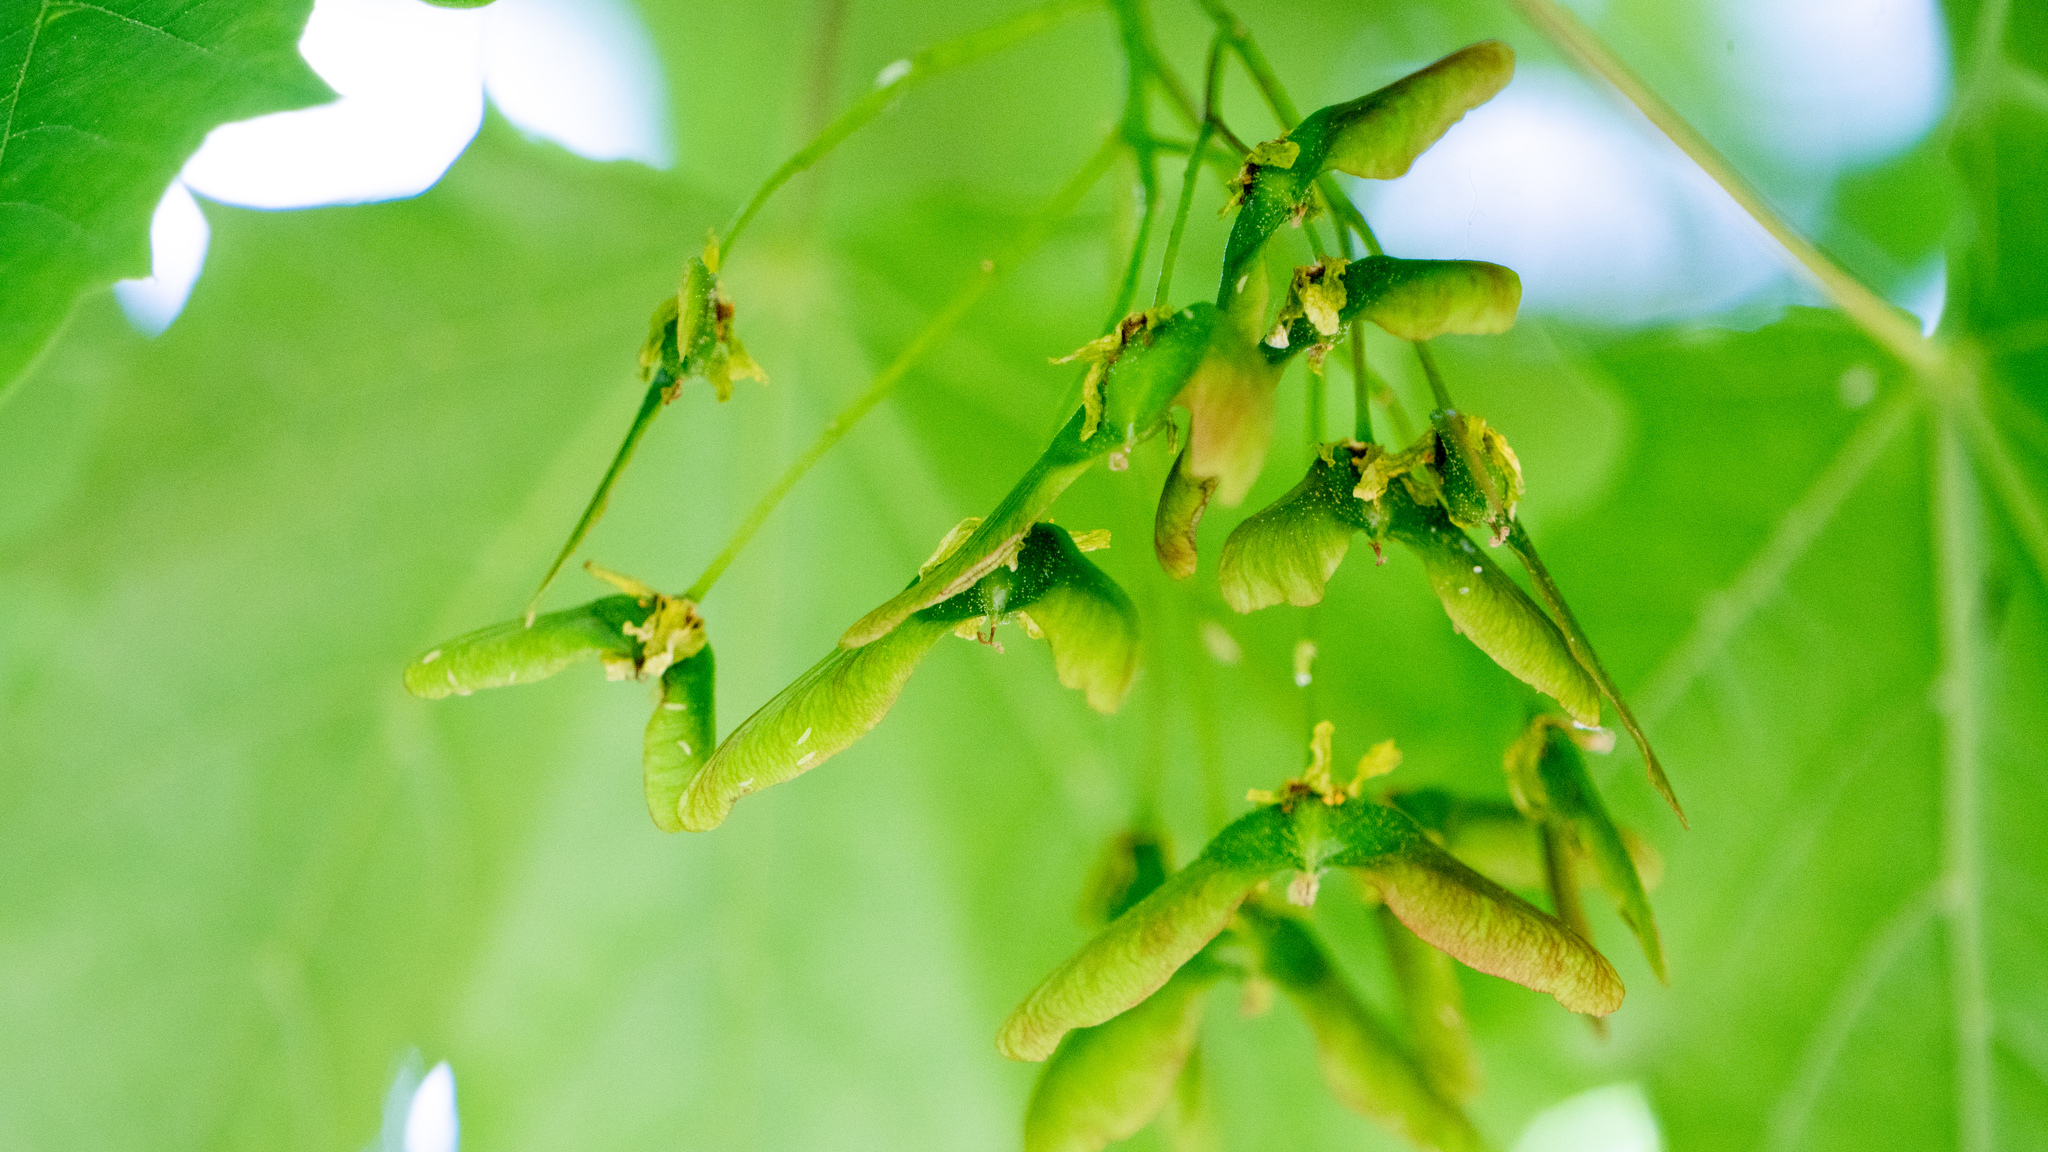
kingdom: Plantae
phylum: Tracheophyta
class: Magnoliopsida
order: Sapindales
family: Sapindaceae
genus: Acer
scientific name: Acer platanoides
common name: Norway maple
